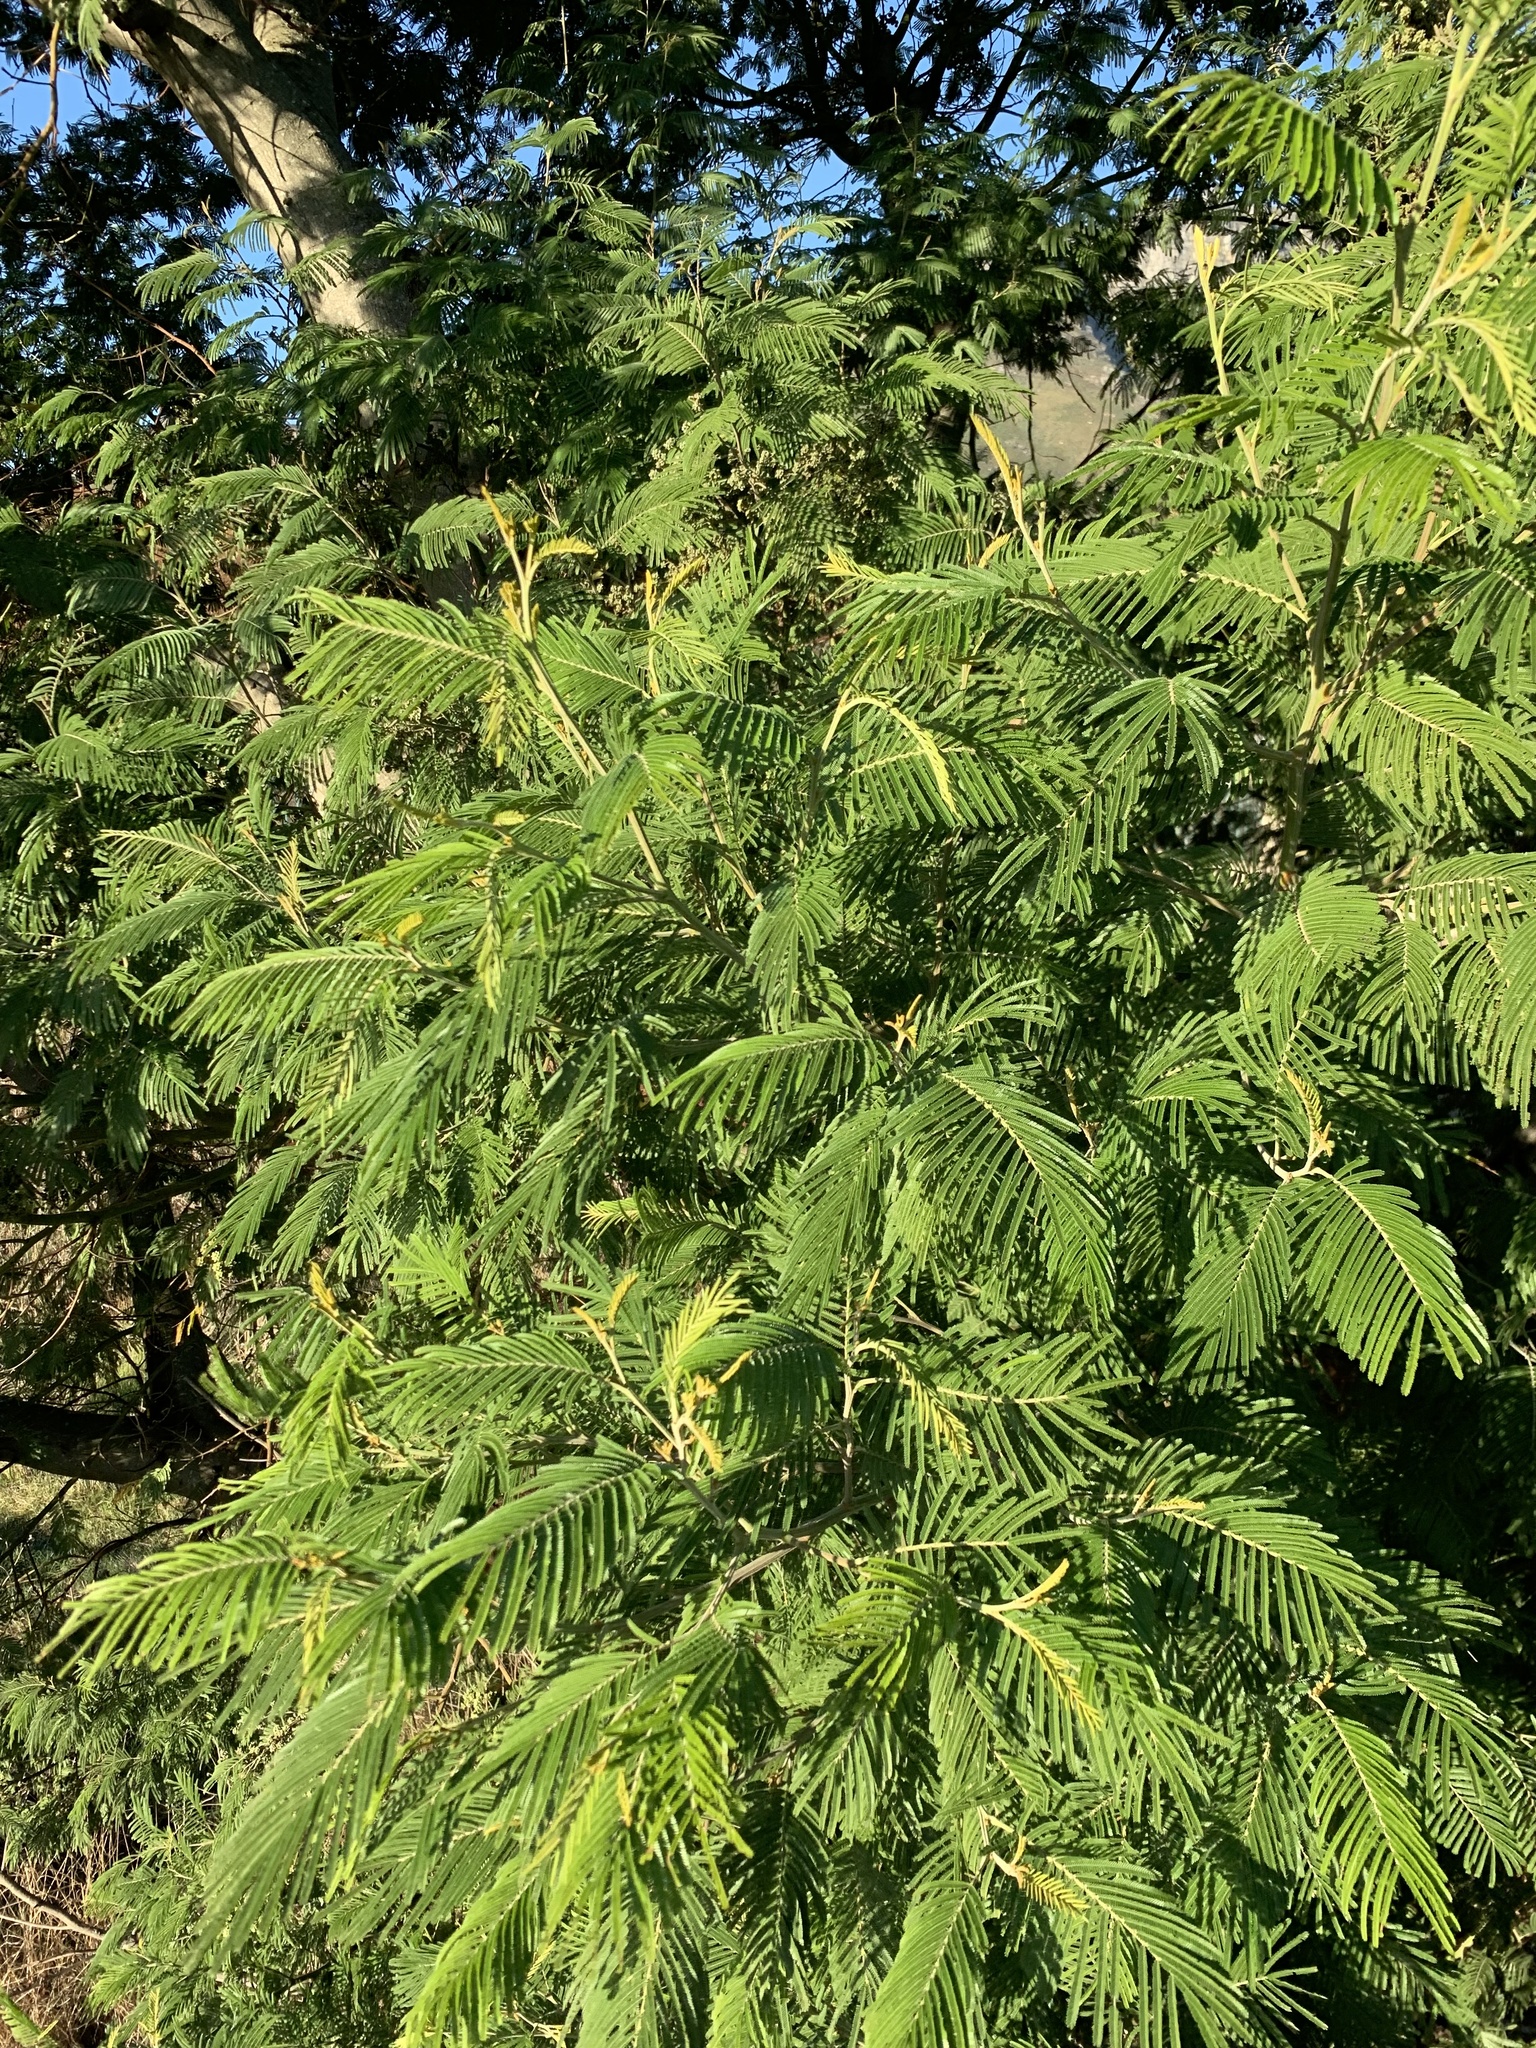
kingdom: Plantae
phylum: Tracheophyta
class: Magnoliopsida
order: Fabales
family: Fabaceae
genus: Acacia
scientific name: Acacia mearnsii
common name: Black wattle
